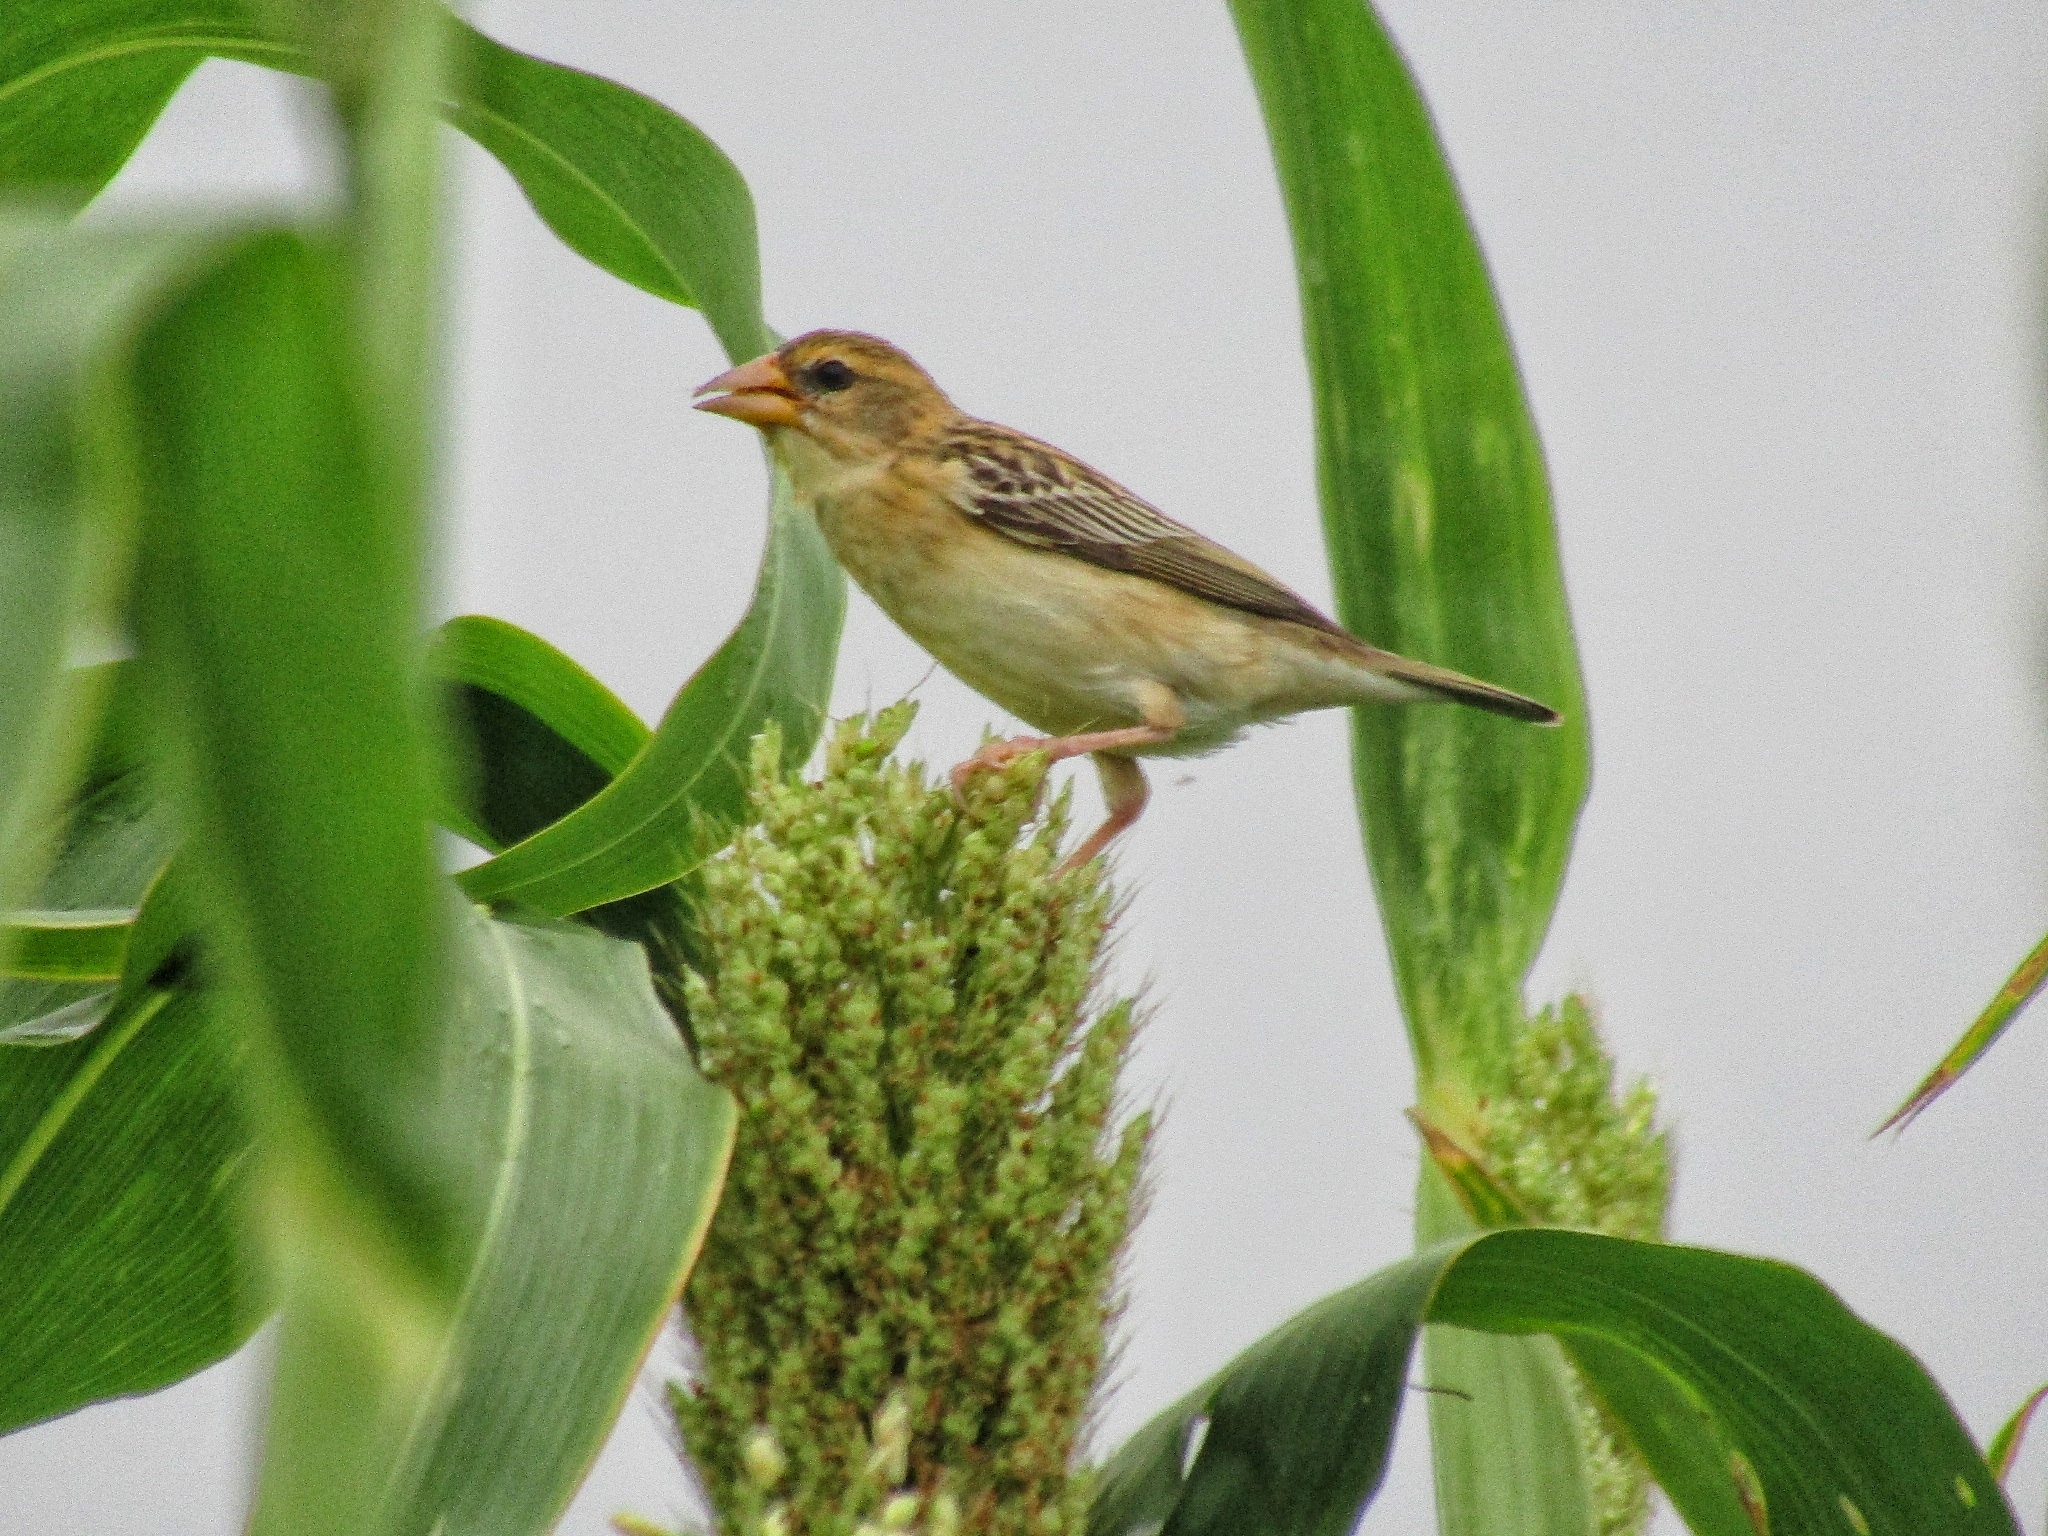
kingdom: Animalia
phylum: Chordata
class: Aves
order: Passeriformes
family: Ploceidae
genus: Ploceus
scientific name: Ploceus philippinus
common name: Baya weaver
